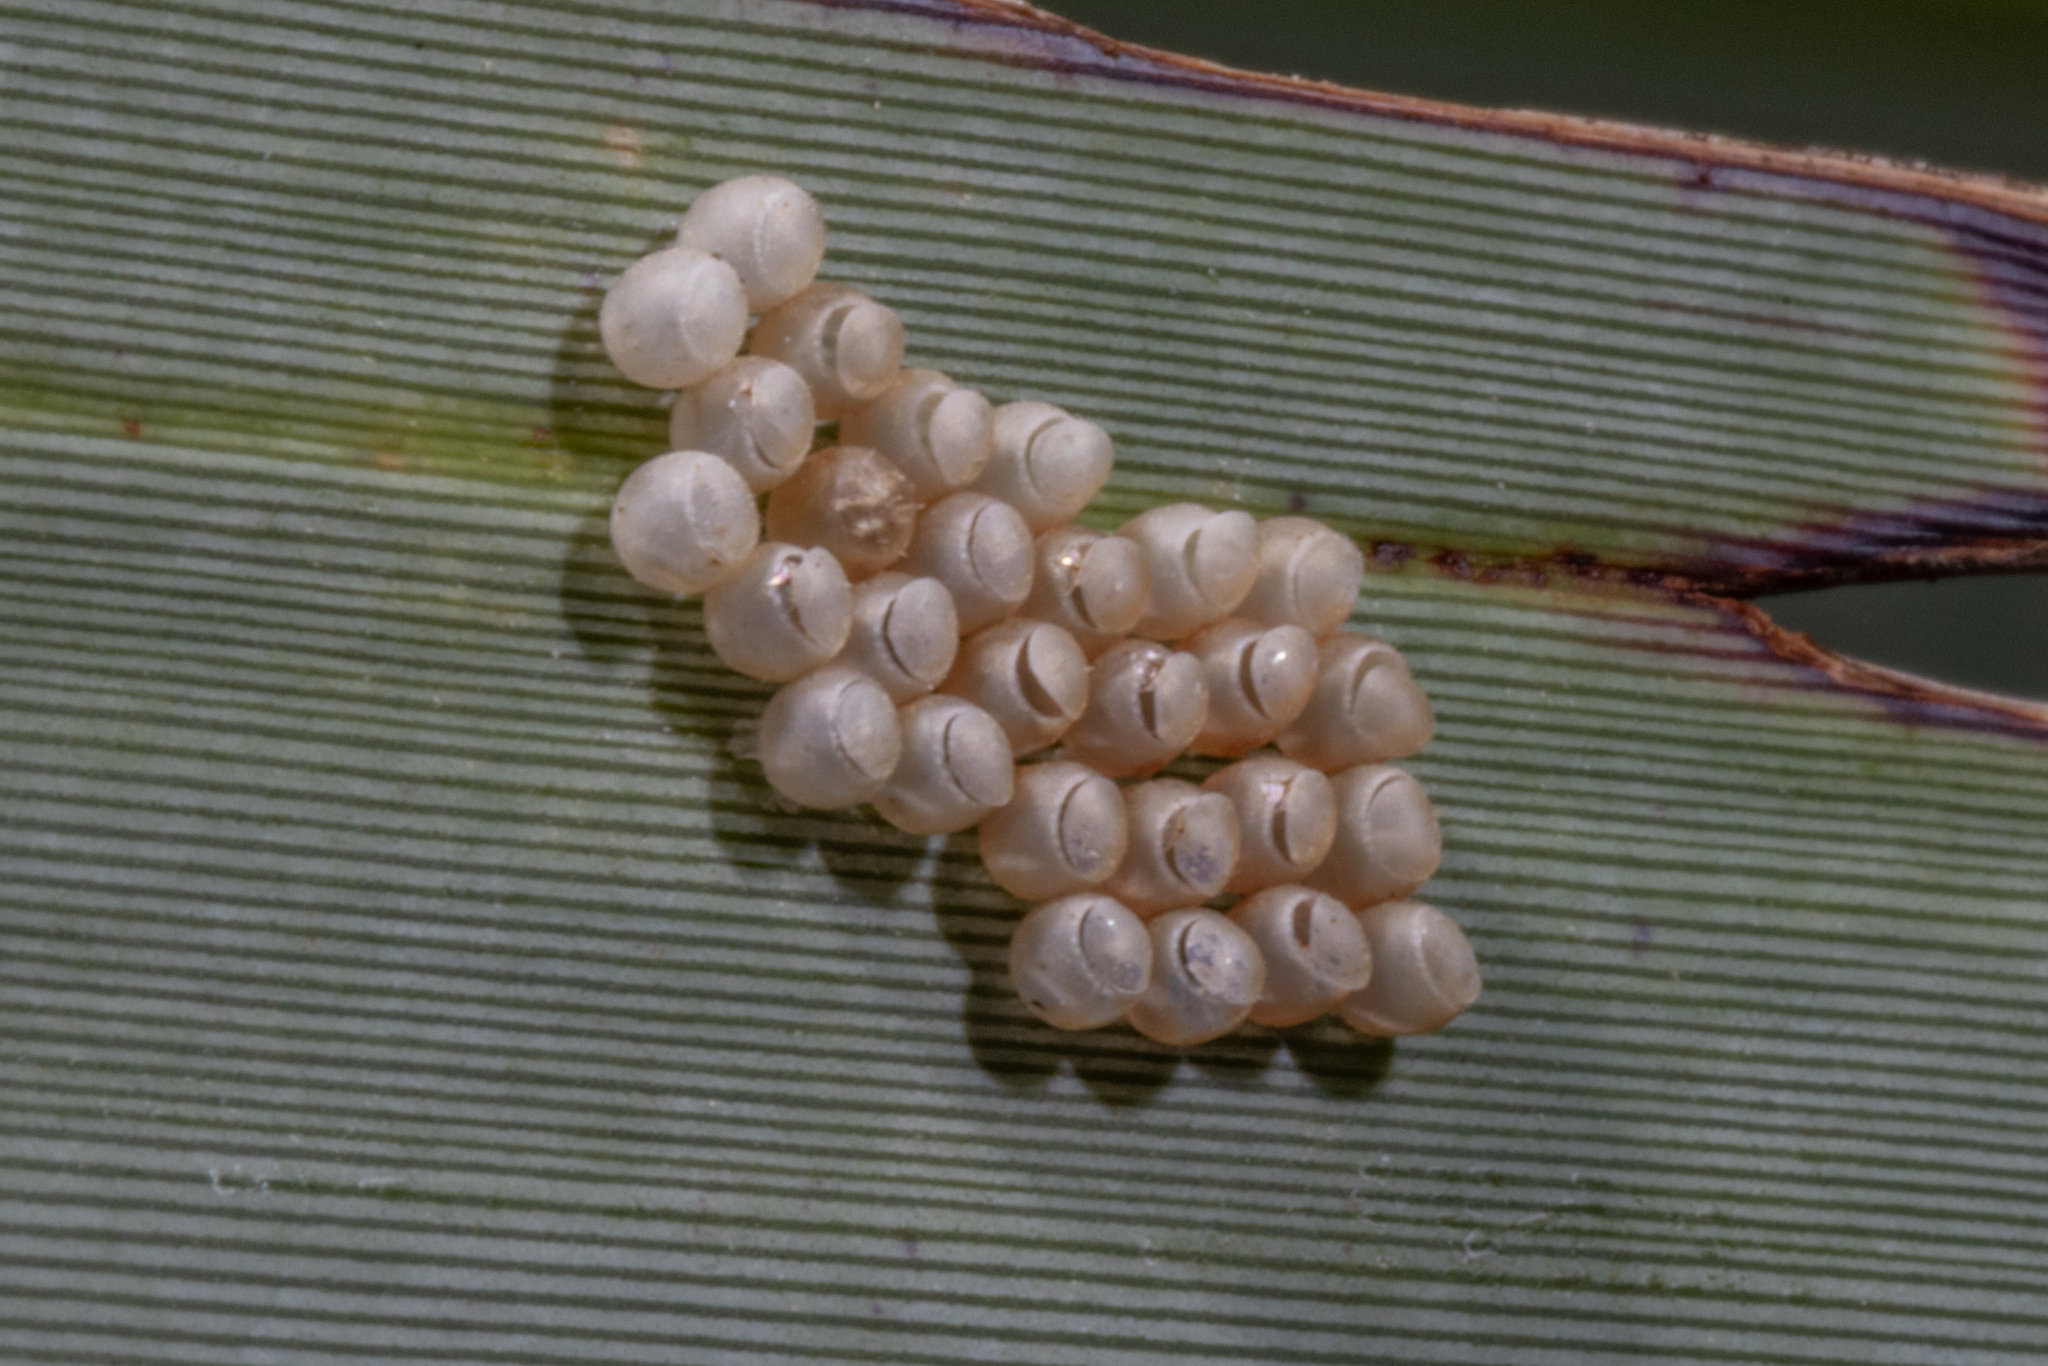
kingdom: Animalia
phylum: Arthropoda
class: Insecta
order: Hemiptera
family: Pentatomidae
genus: Glaucias
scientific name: Glaucias amyota
